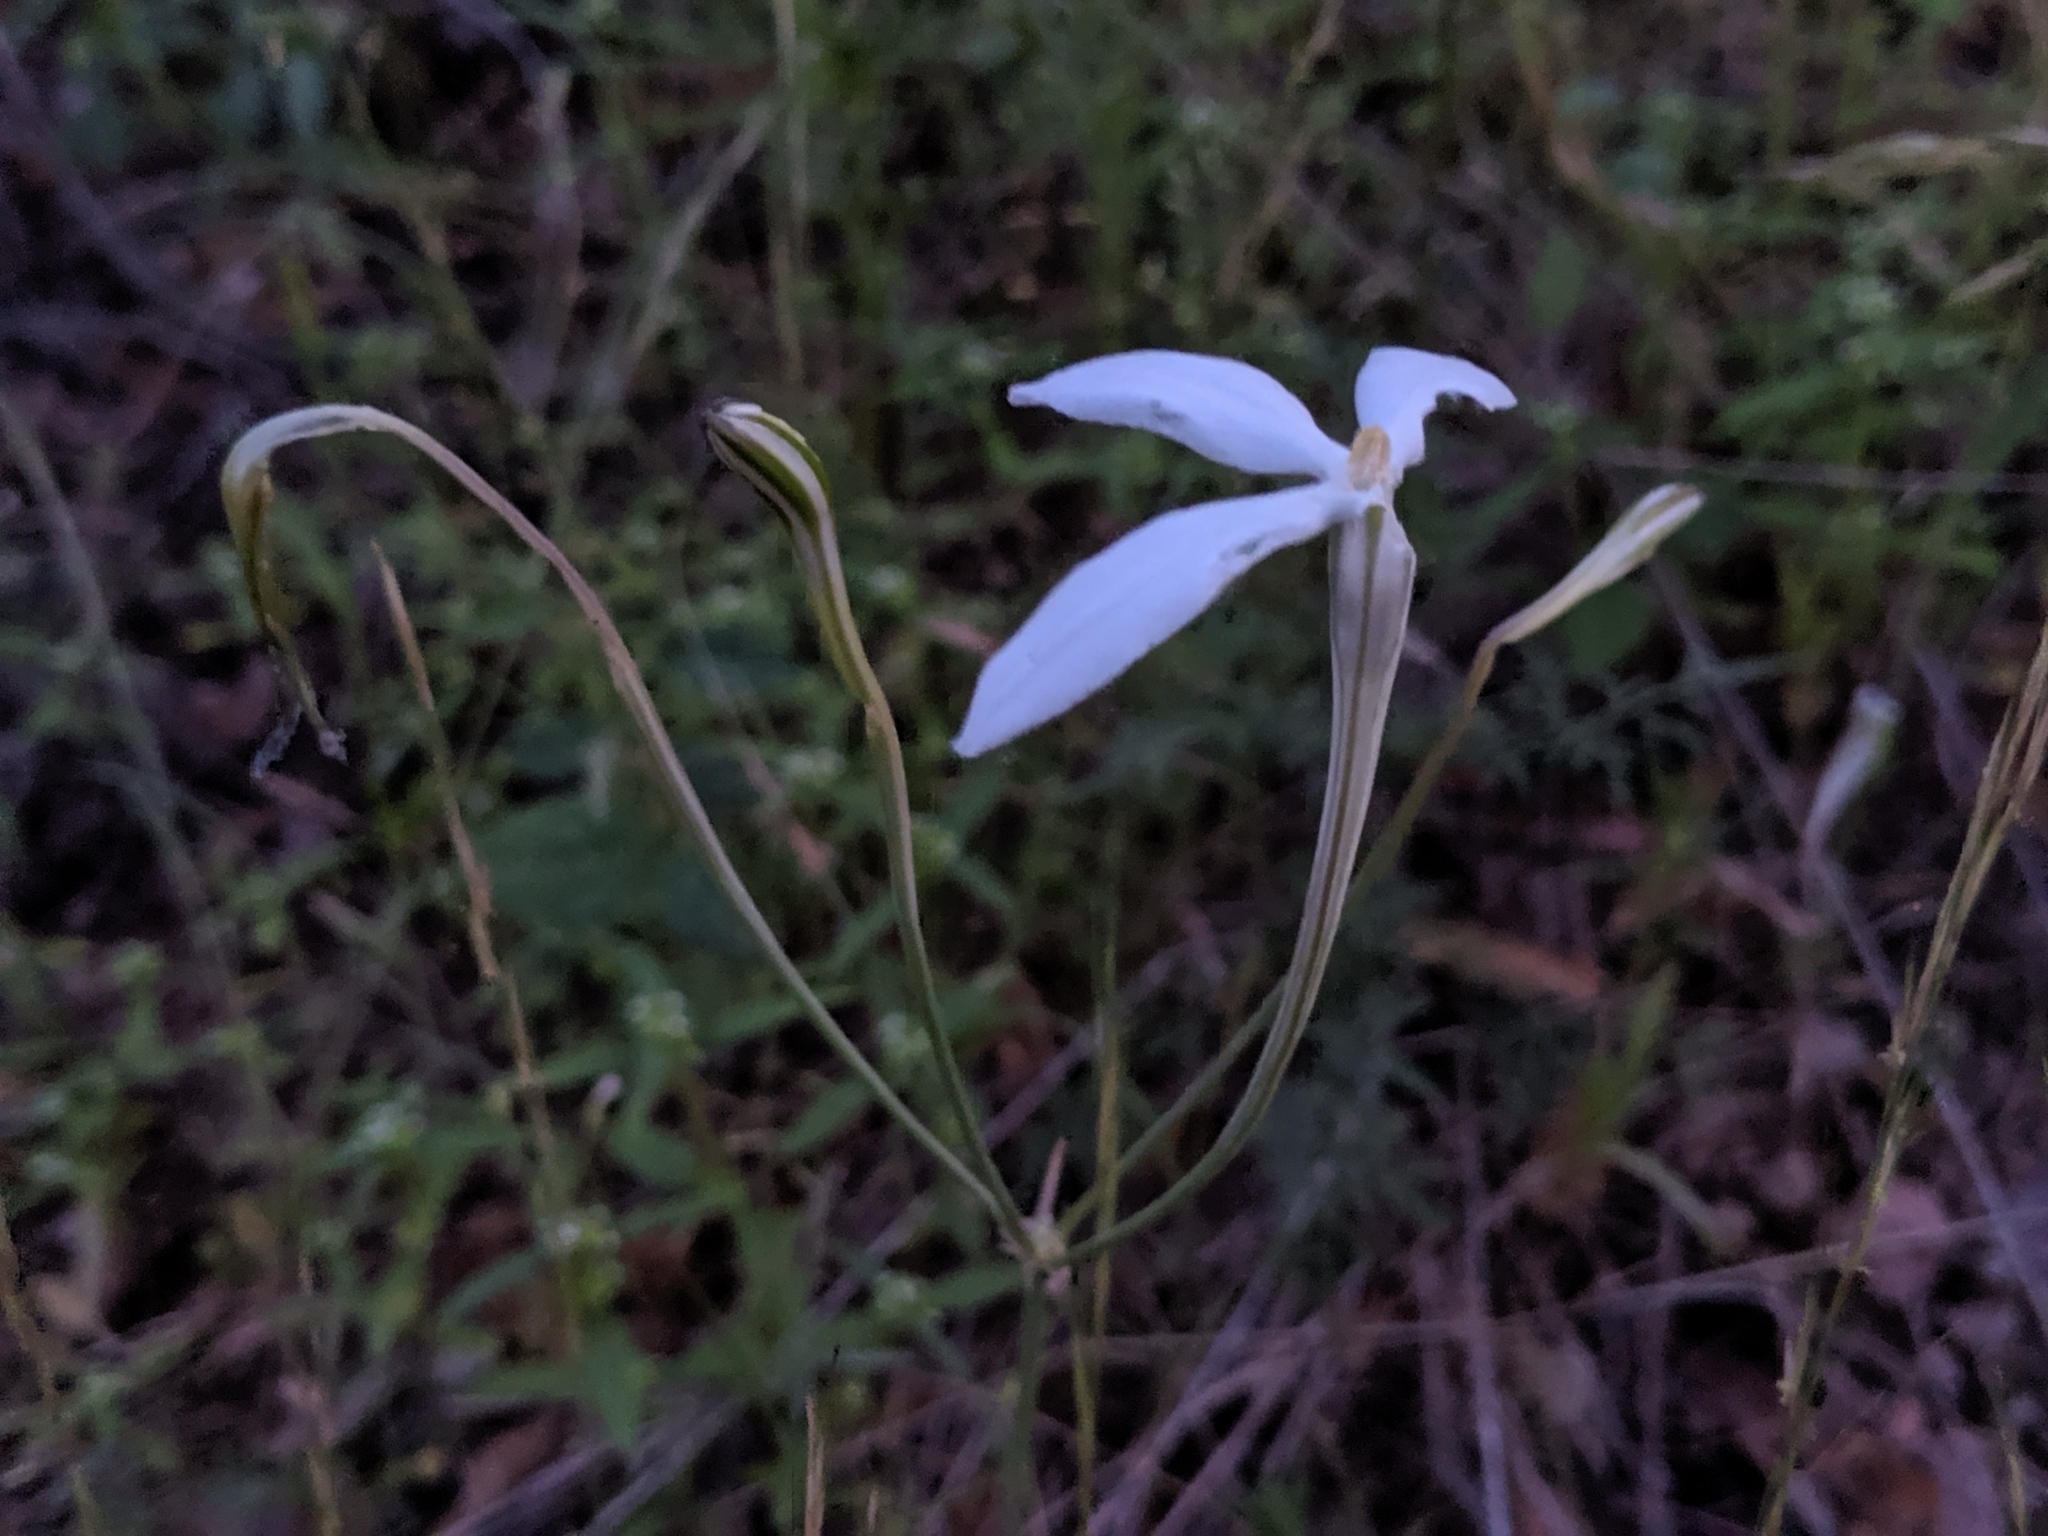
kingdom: Plantae
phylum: Tracheophyta
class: Liliopsida
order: Asparagales
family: Asparagaceae
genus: Milla
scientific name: Milla biflora
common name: Mexican-star
